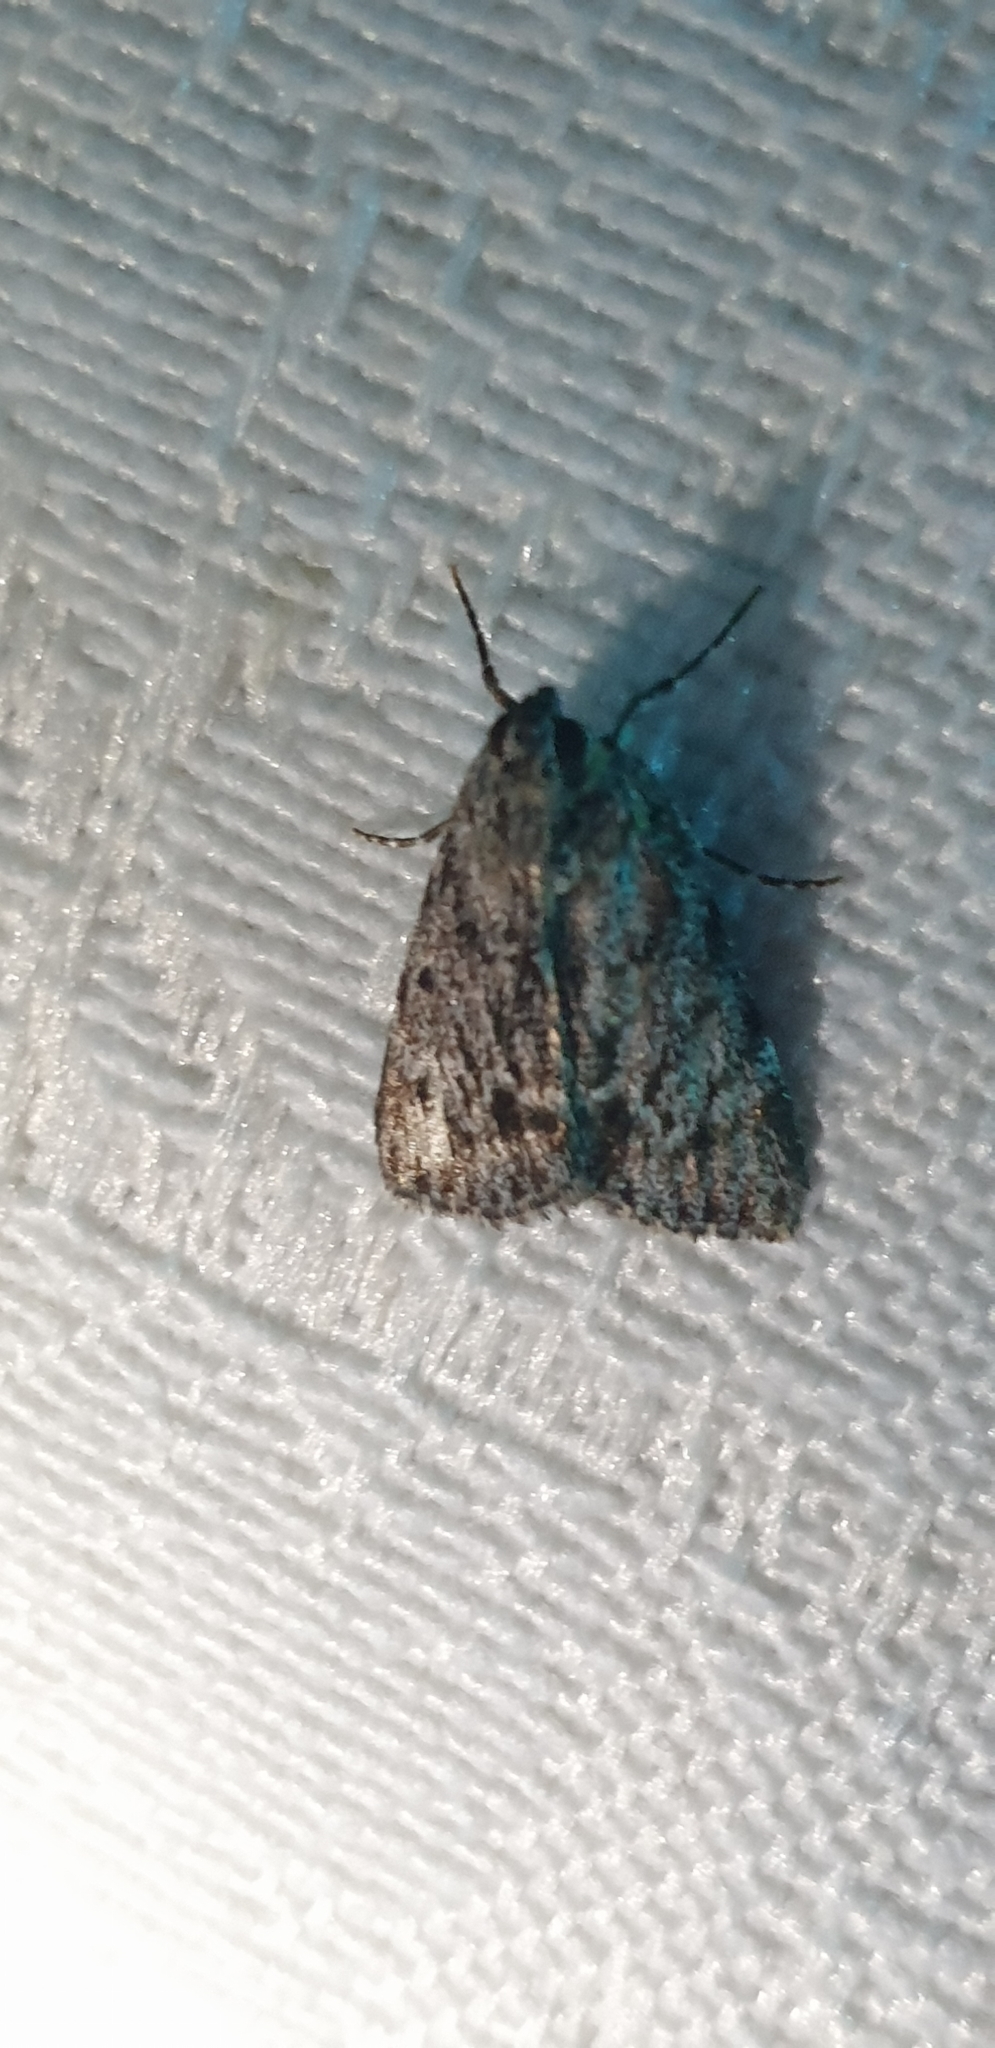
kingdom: Animalia
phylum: Arthropoda
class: Insecta
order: Lepidoptera
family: Pyralidae
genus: Spectrotrota
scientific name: Spectrotrota fimbrialis
